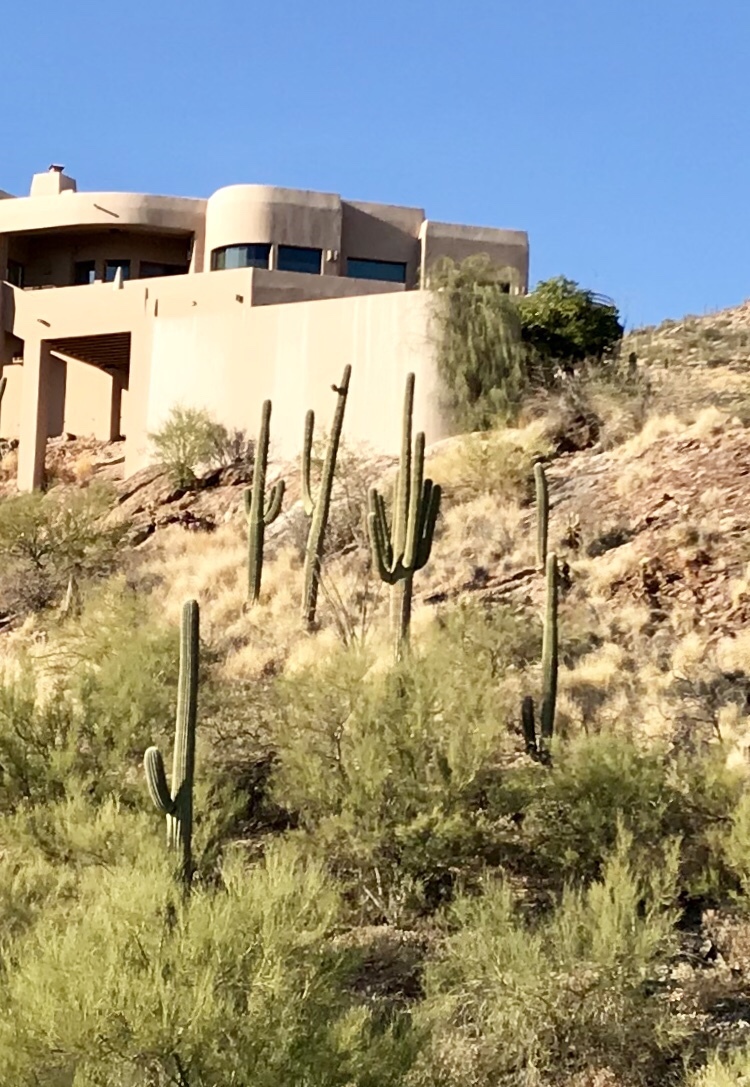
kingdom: Plantae
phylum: Tracheophyta
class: Magnoliopsida
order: Caryophyllales
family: Cactaceae
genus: Carnegiea
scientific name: Carnegiea gigantea
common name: Saguaro
